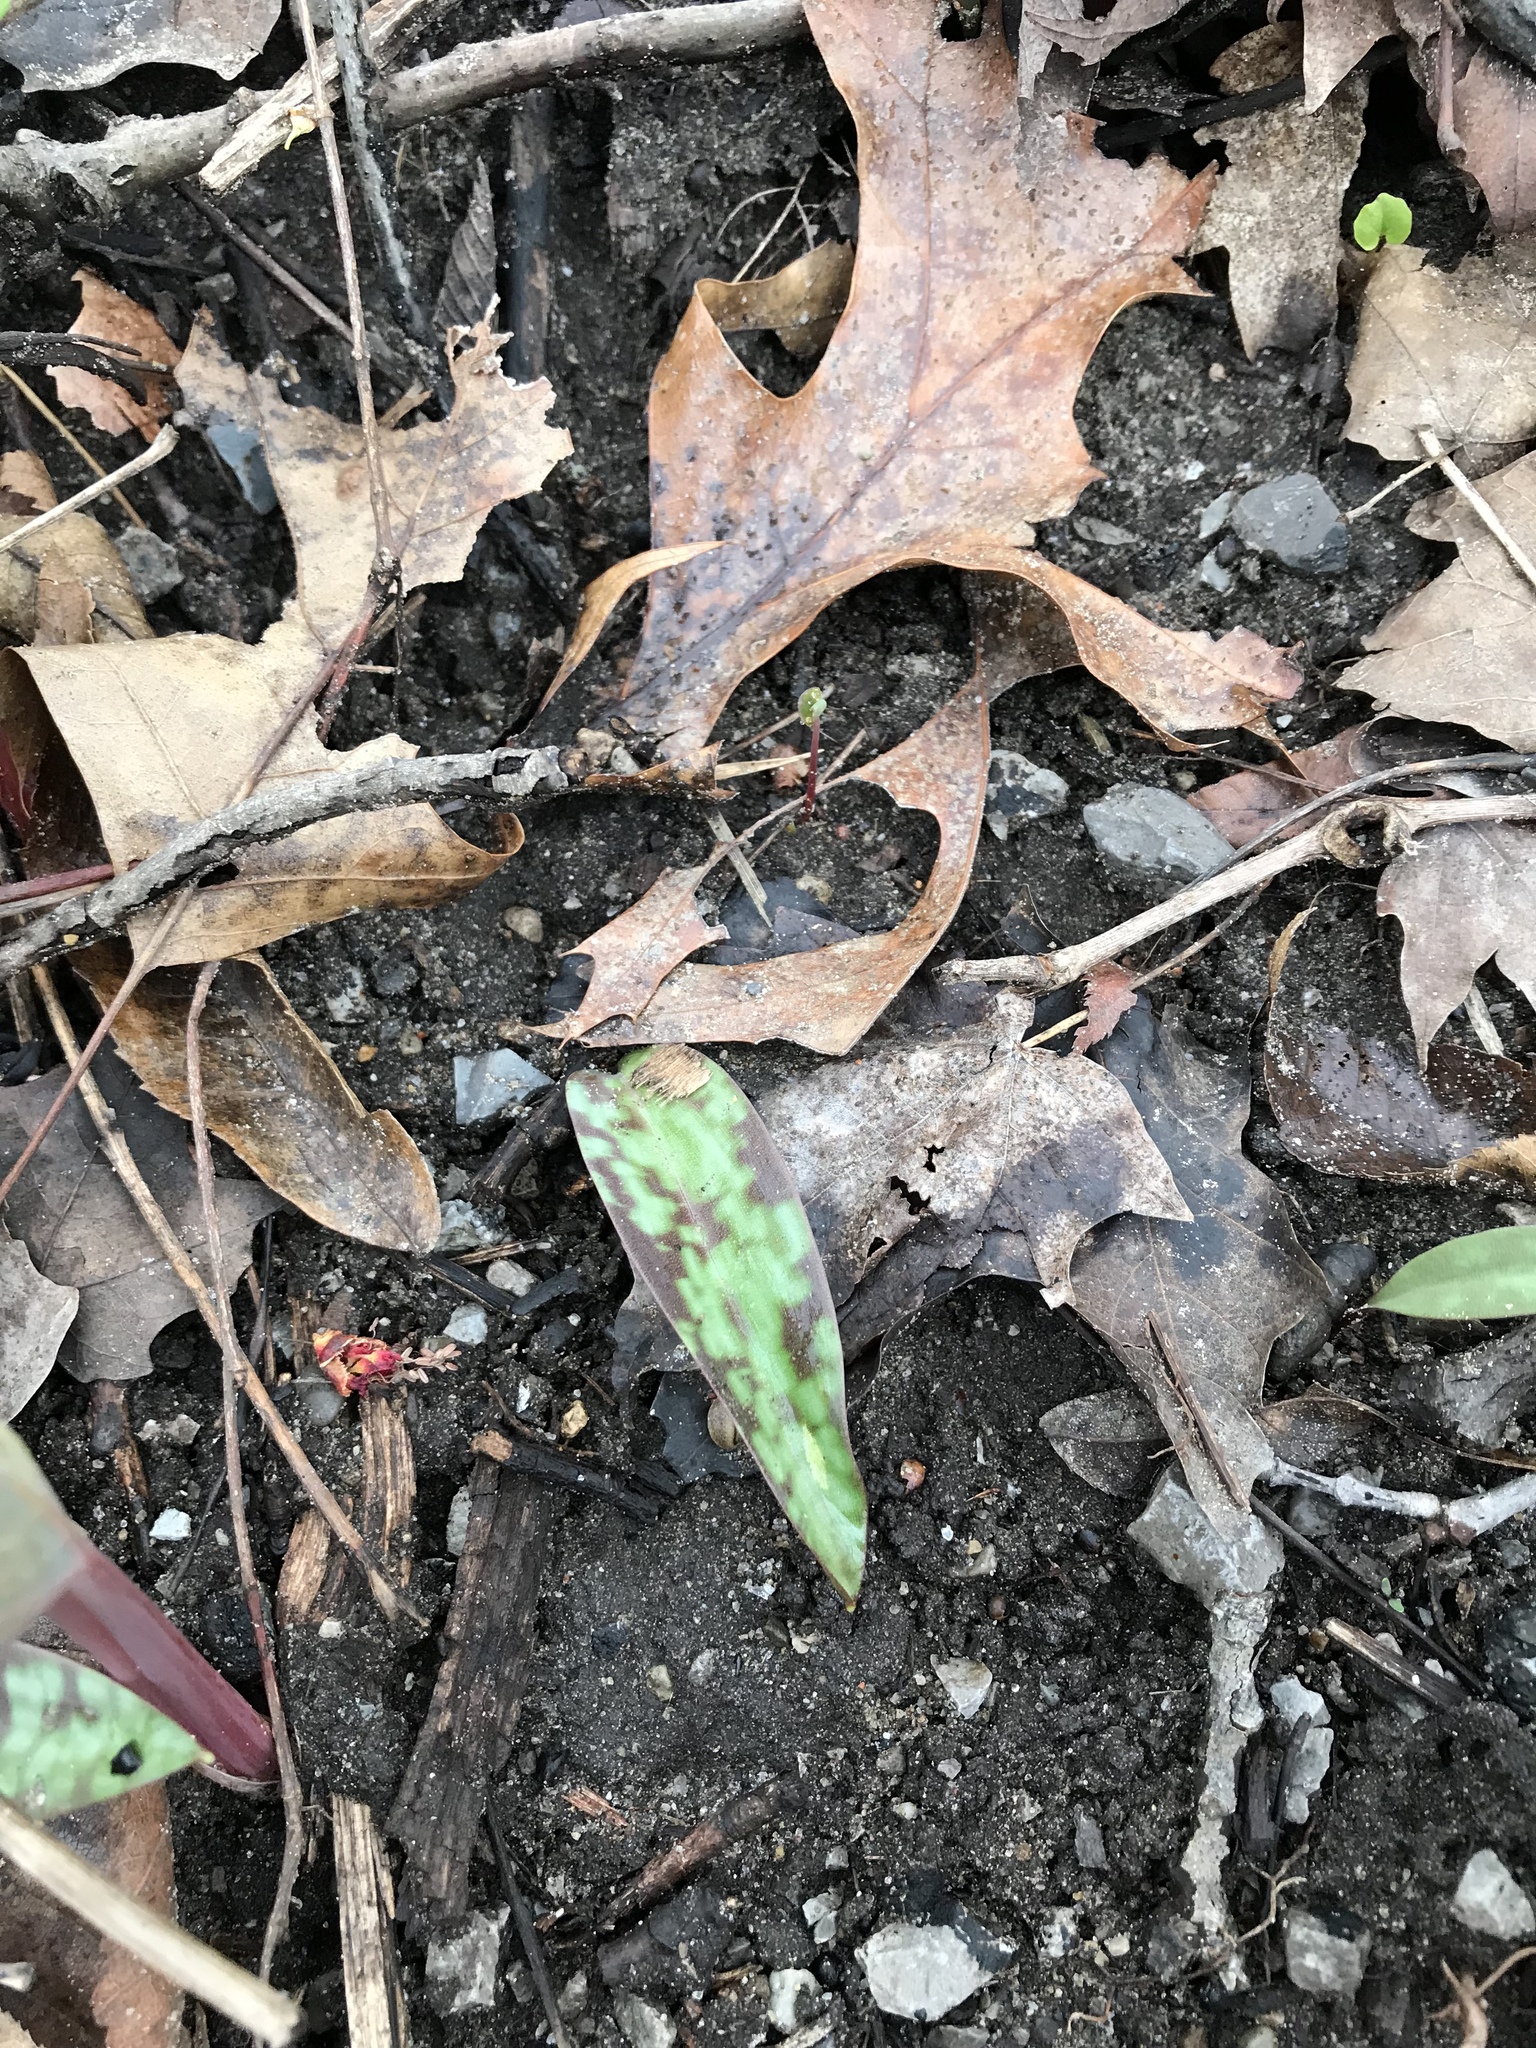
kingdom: Plantae
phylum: Tracheophyta
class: Liliopsida
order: Liliales
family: Liliaceae
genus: Erythronium
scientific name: Erythronium americanum
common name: Yellow adder's-tongue
